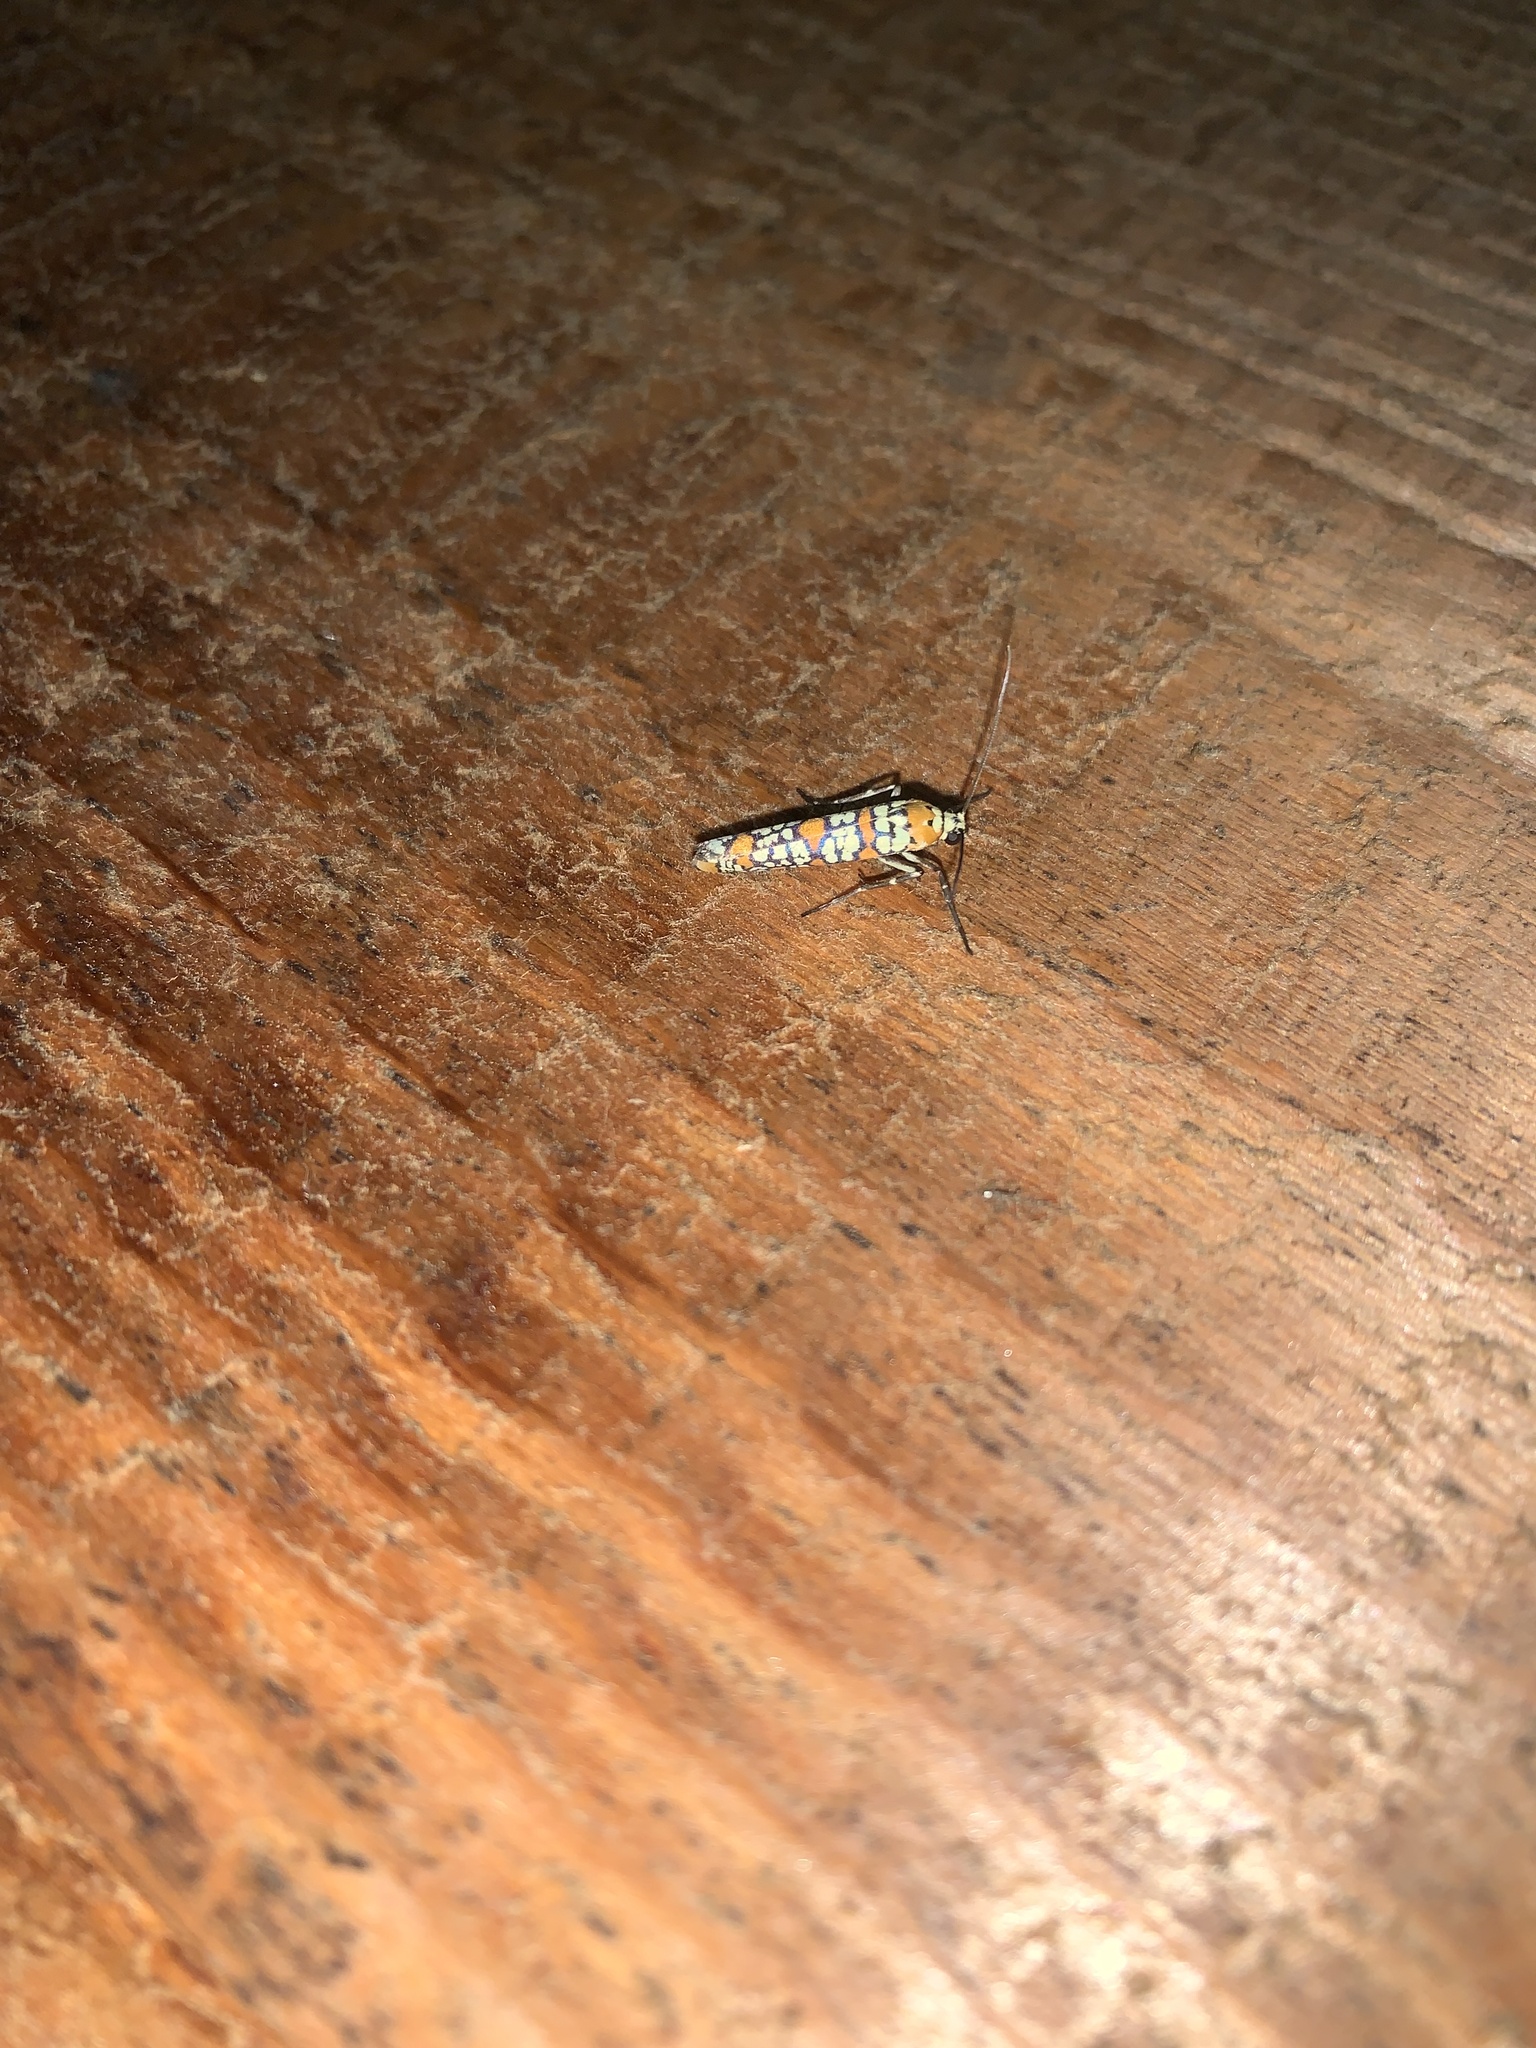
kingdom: Animalia
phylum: Arthropoda
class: Insecta
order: Lepidoptera
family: Attevidae
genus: Atteva
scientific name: Atteva punctella
